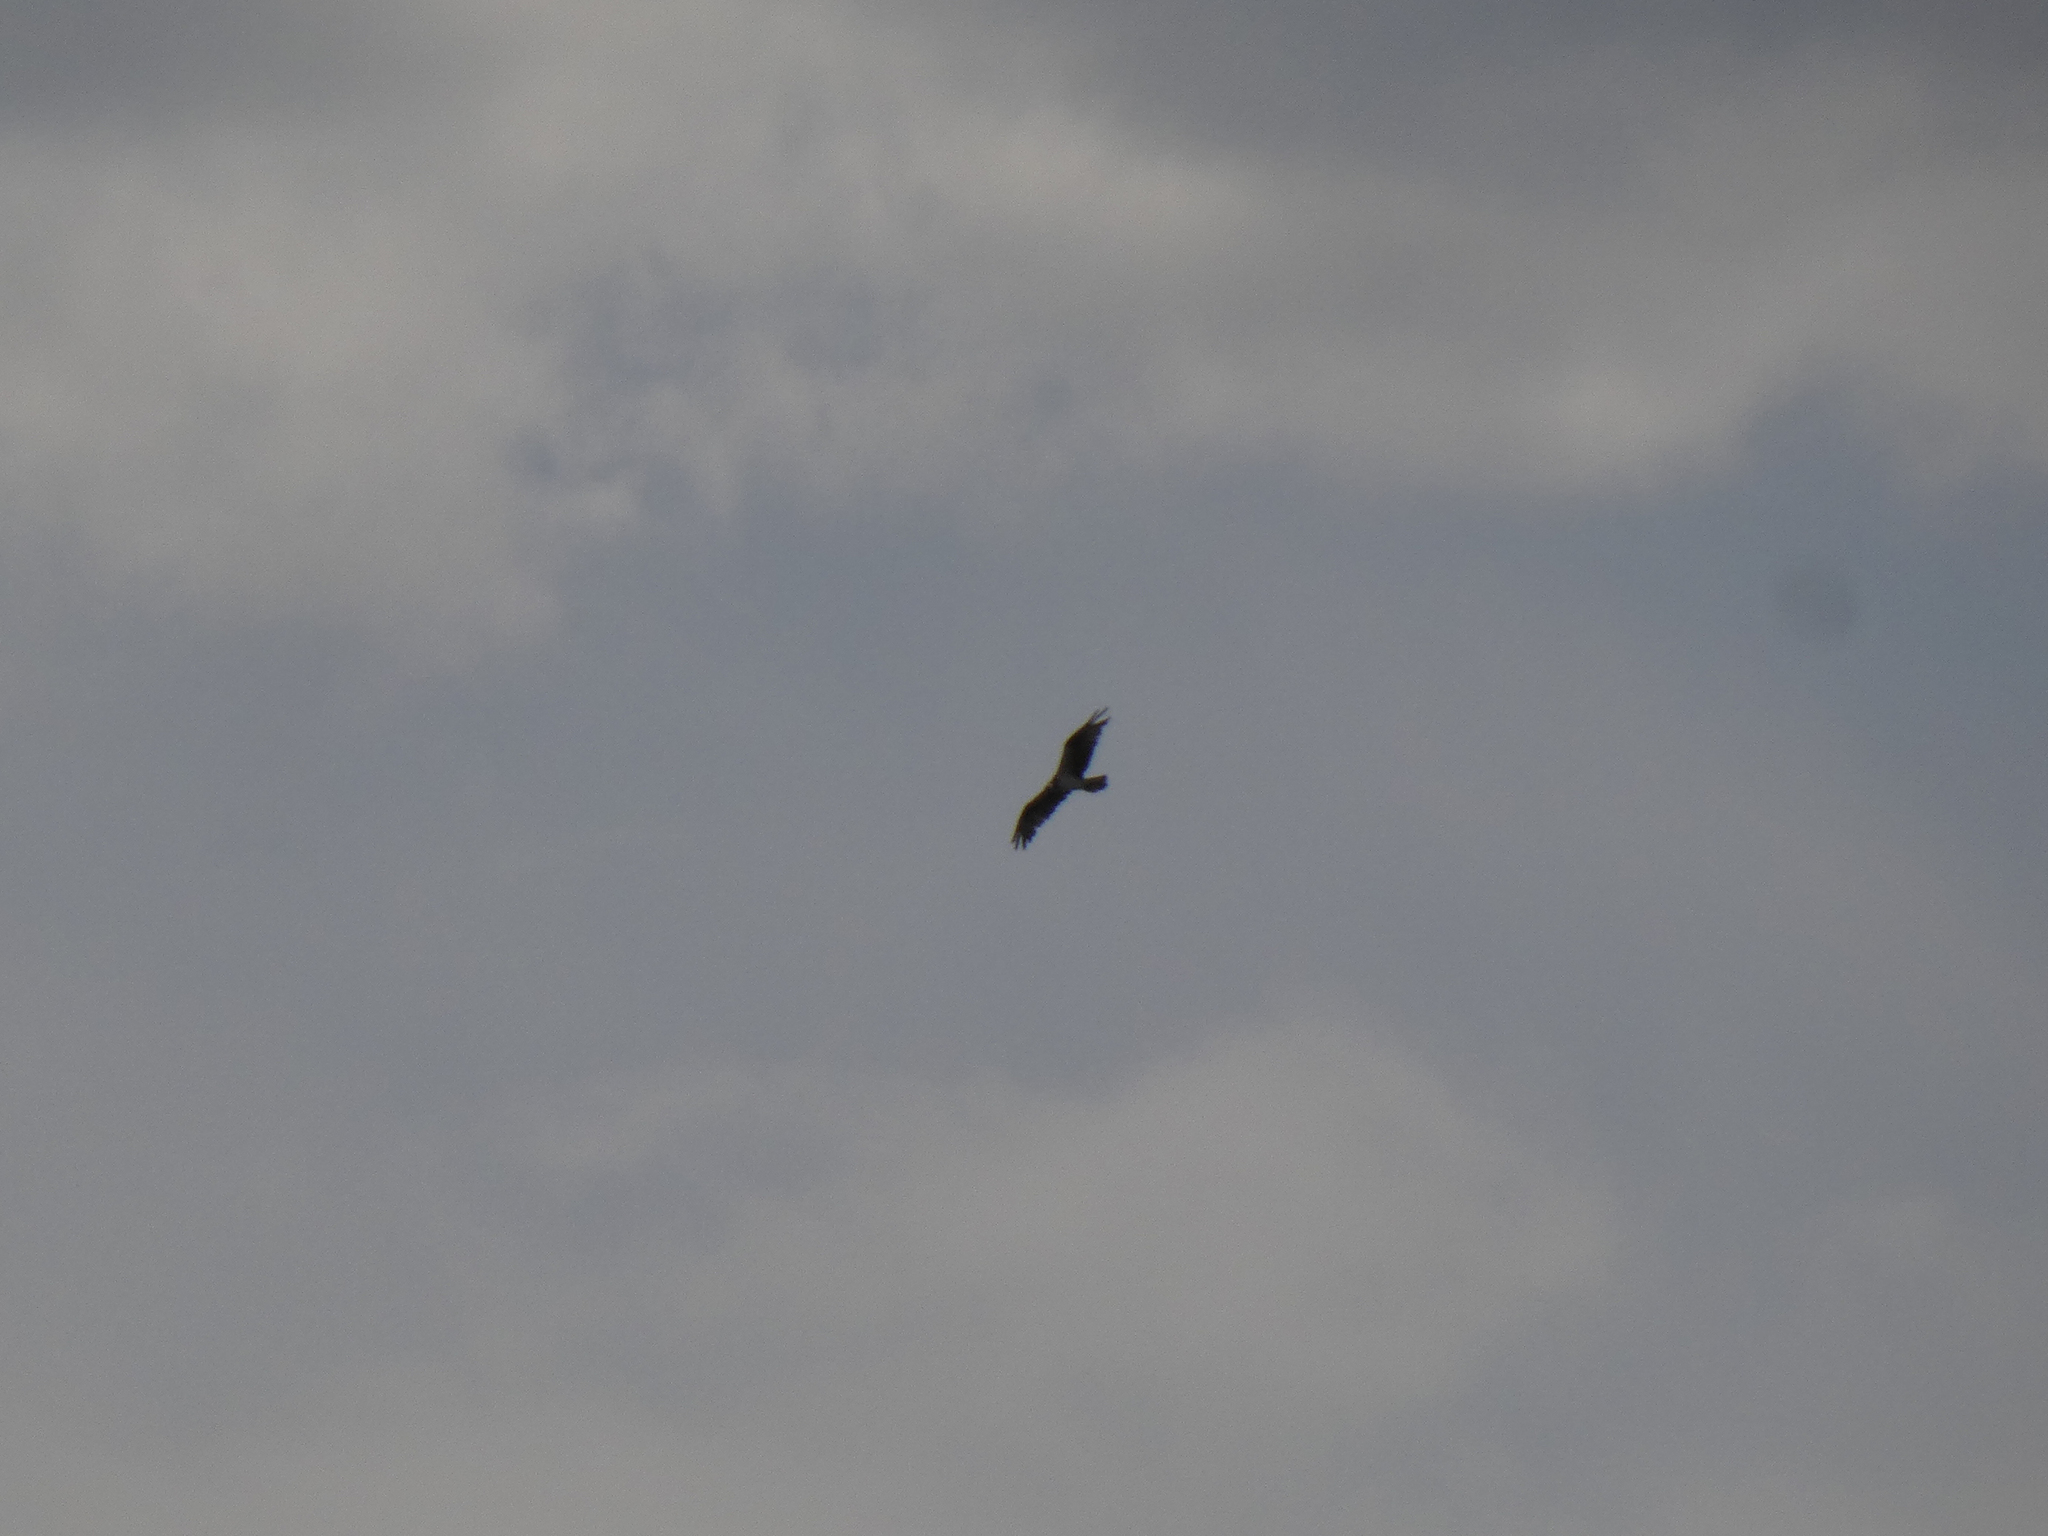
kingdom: Animalia
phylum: Chordata
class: Aves
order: Accipitriformes
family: Pandionidae
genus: Pandion
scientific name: Pandion haliaetus
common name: Osprey
